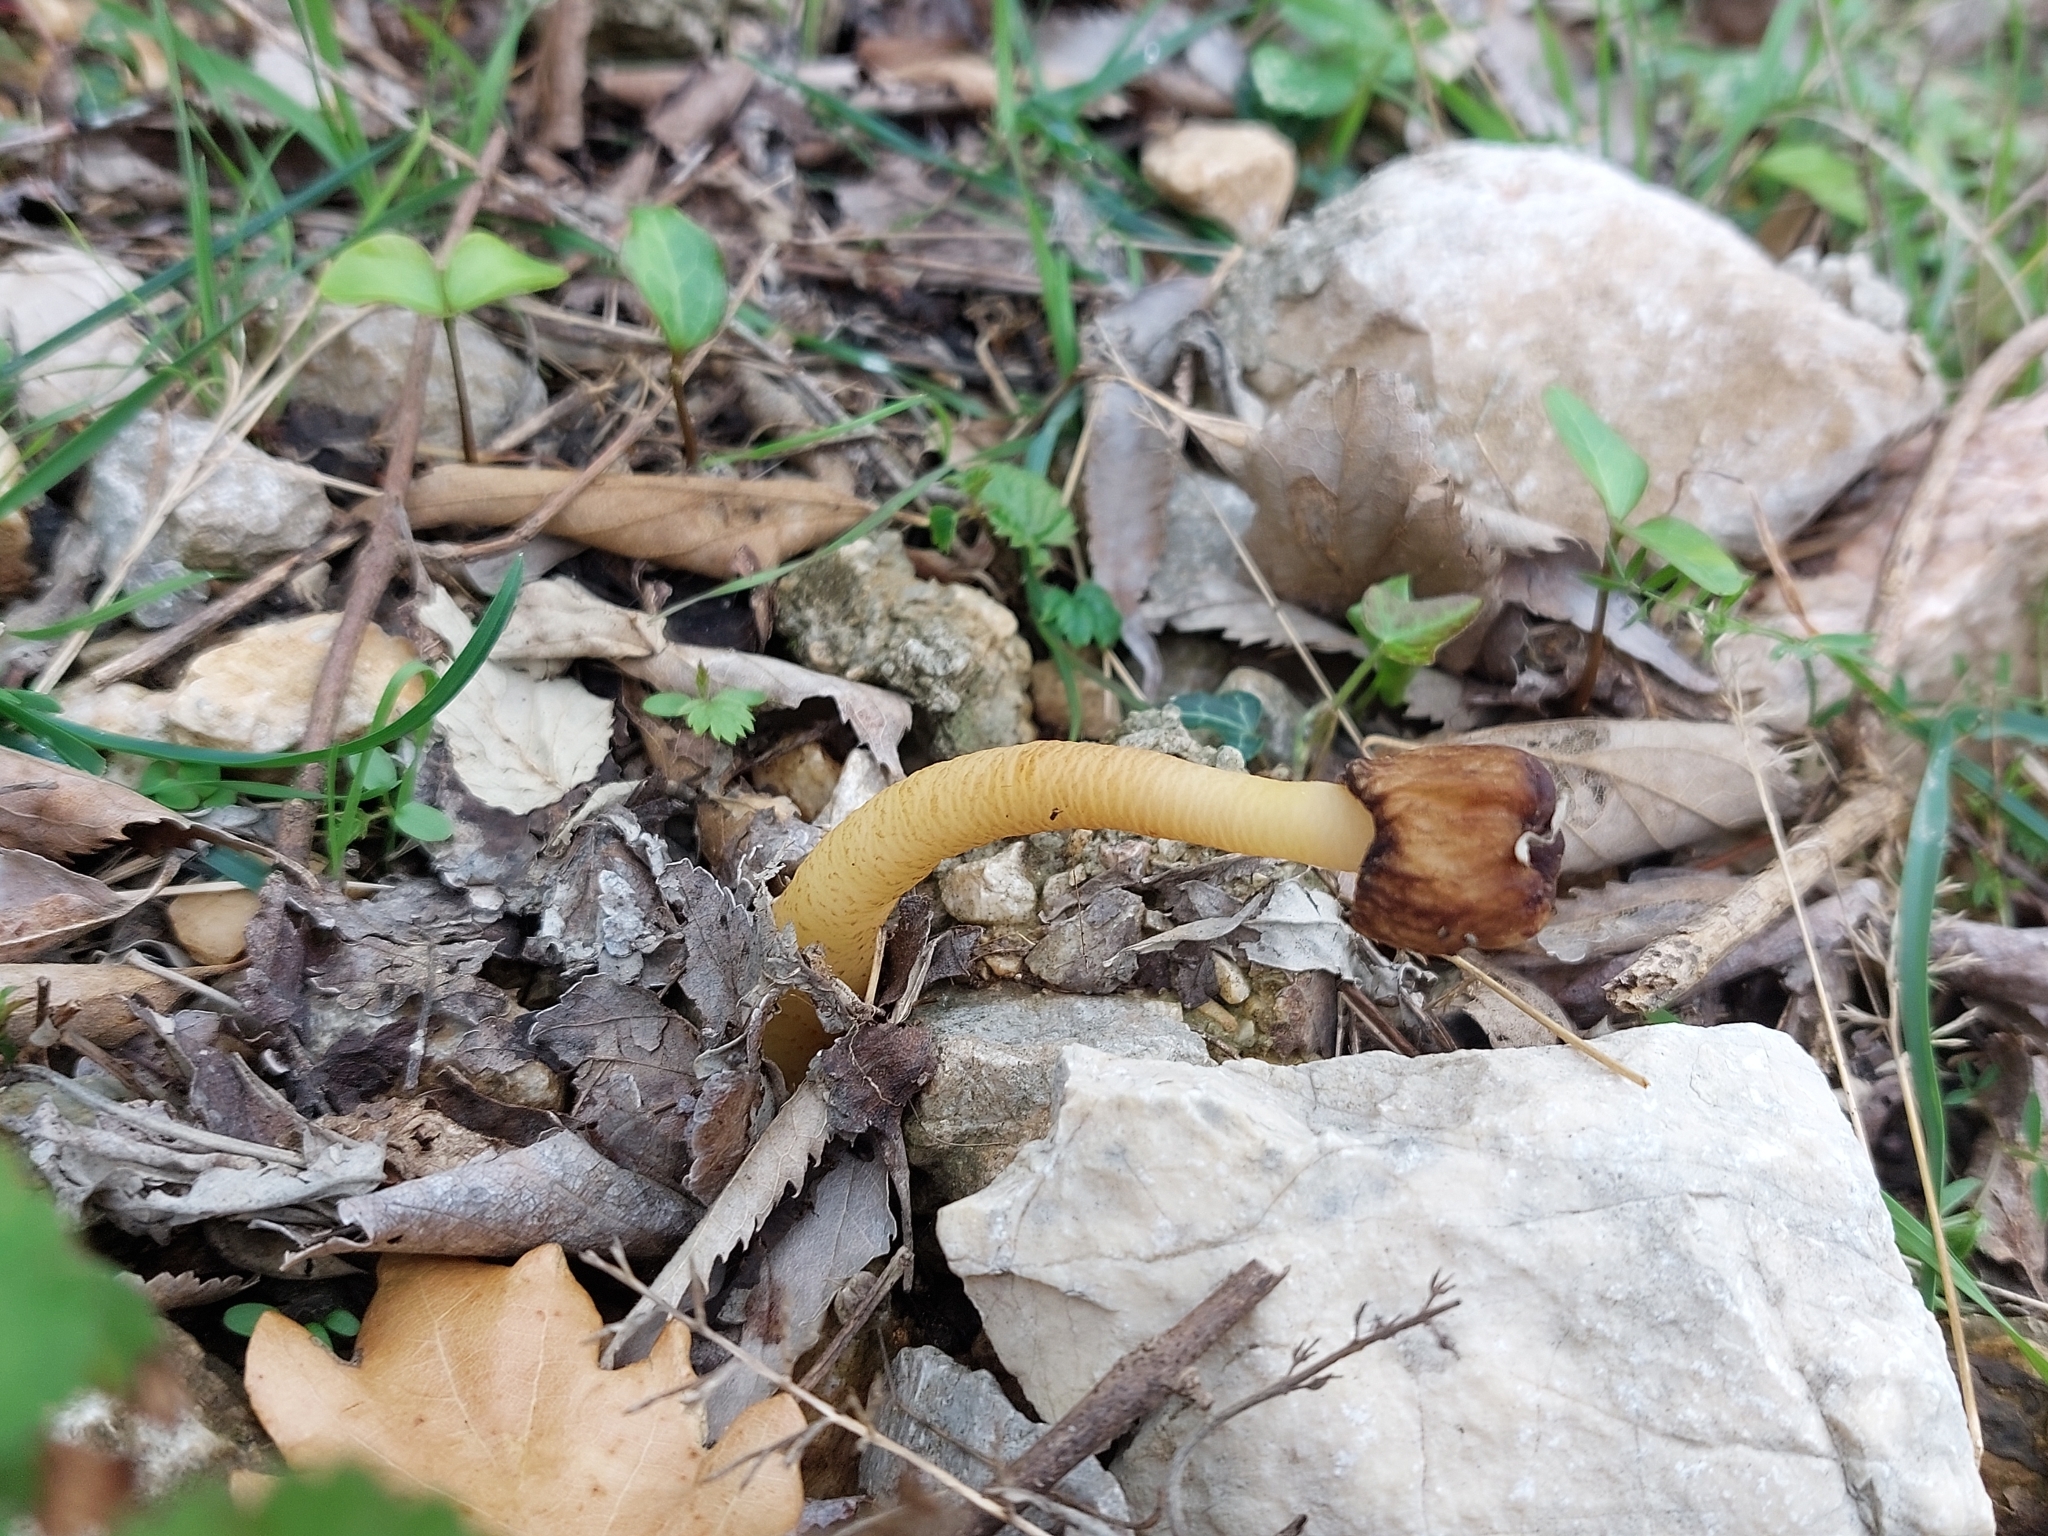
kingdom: Fungi
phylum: Ascomycota
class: Pezizomycetes
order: Pezizales
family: Morchellaceae
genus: Verpa
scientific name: Verpa conica
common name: Thimble morel
